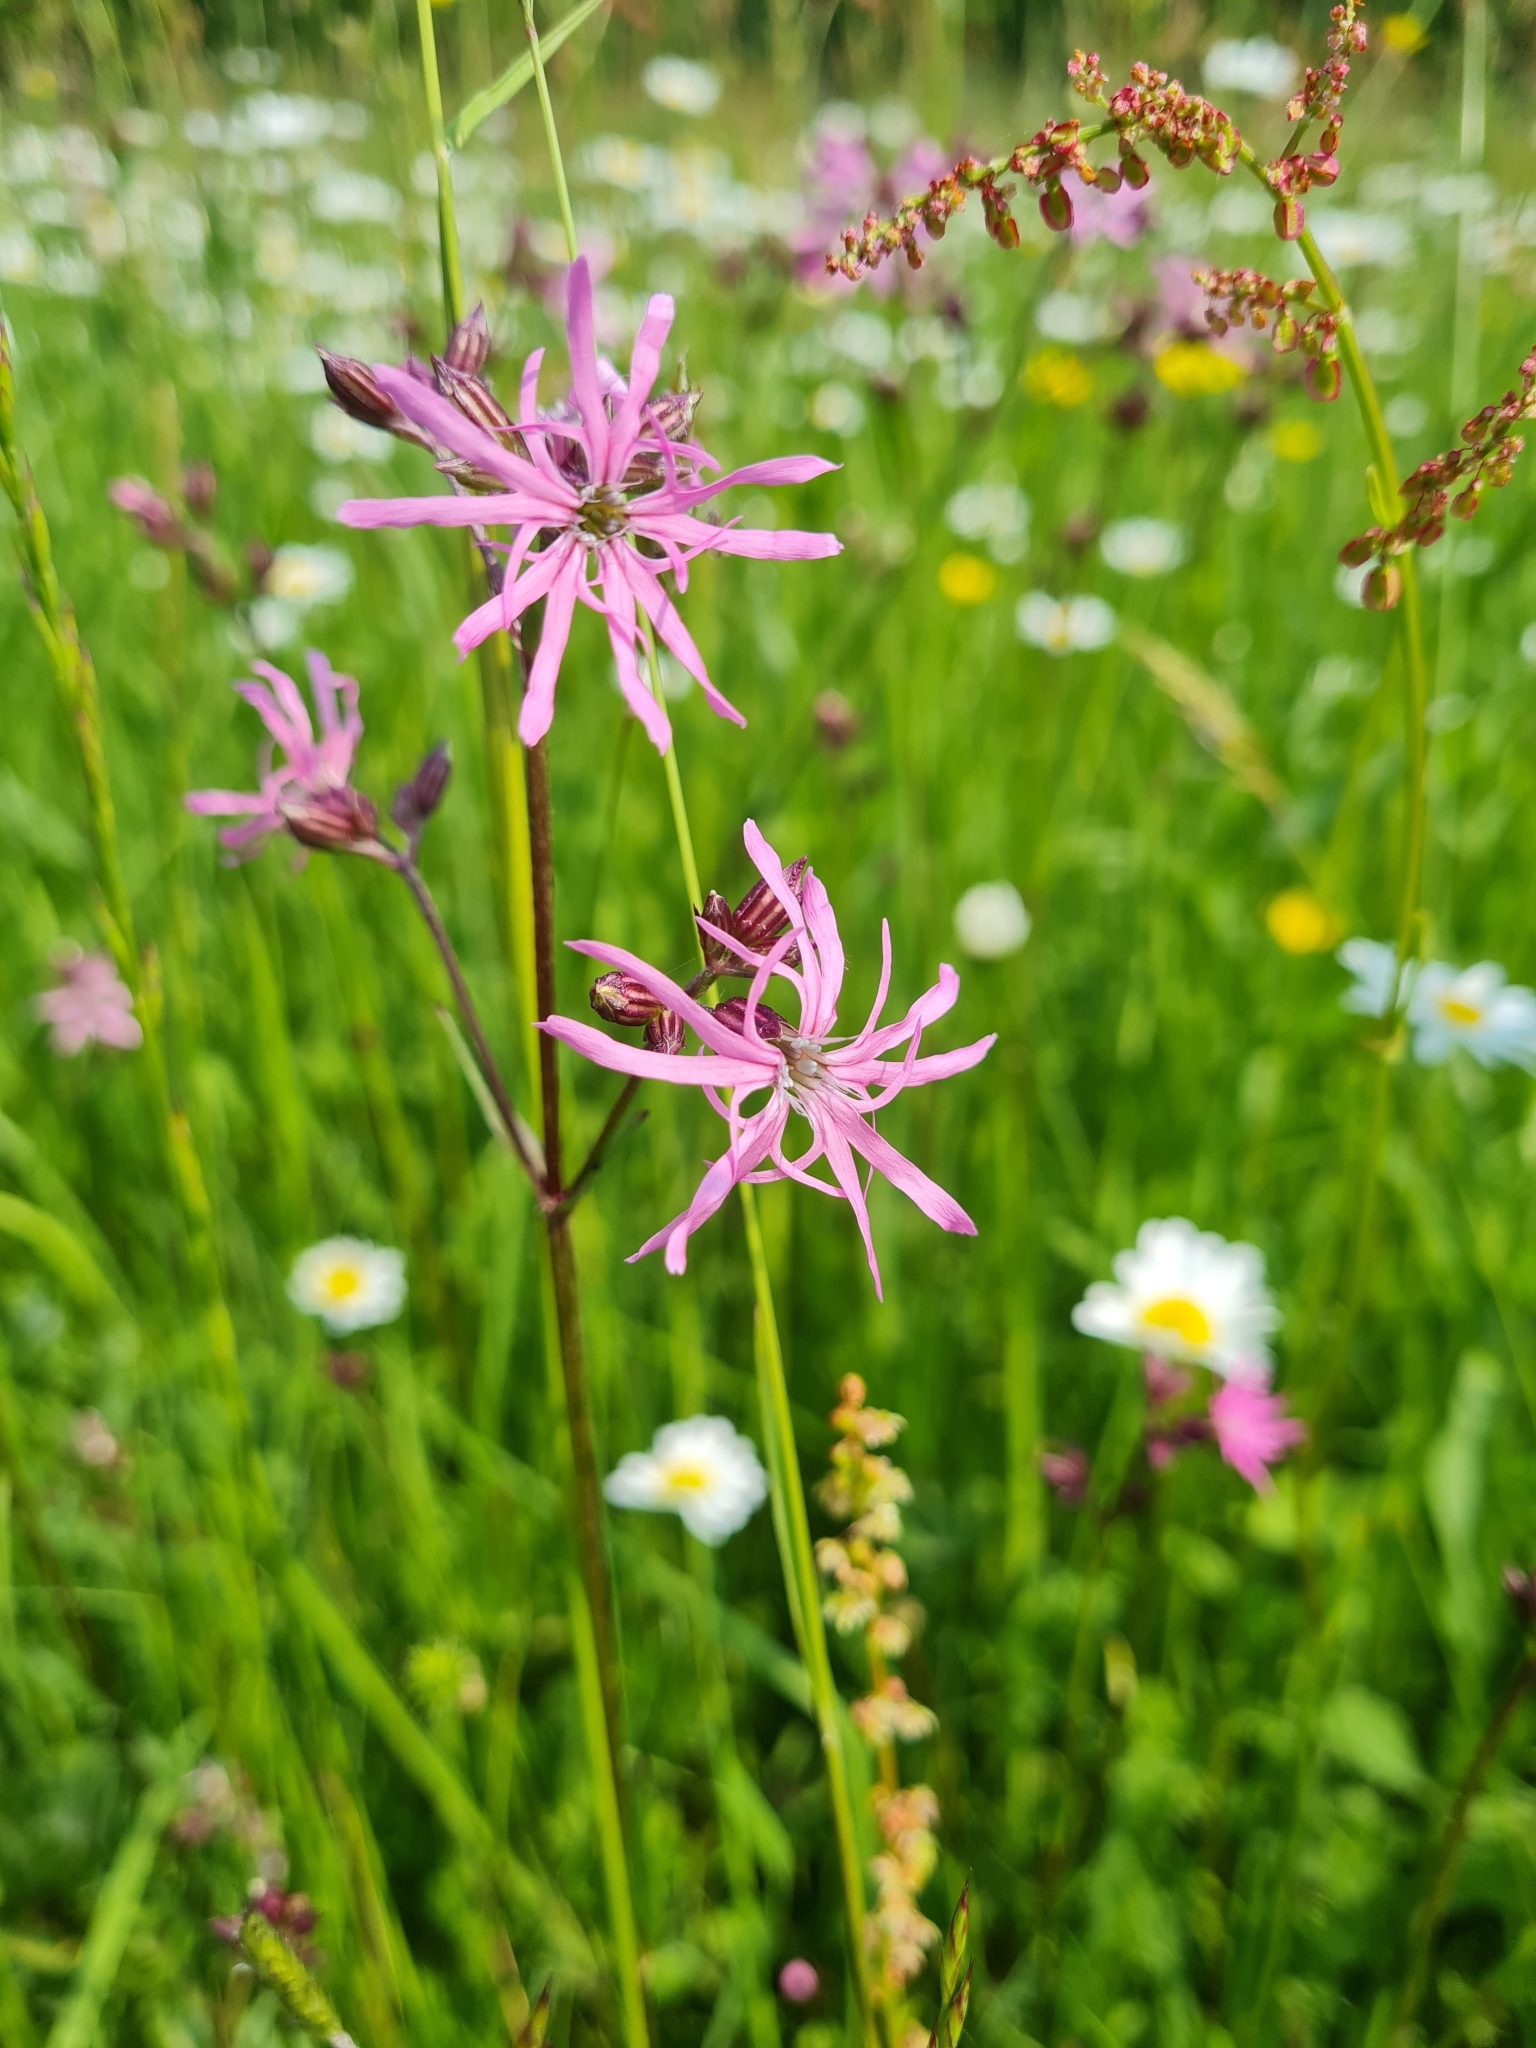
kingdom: Plantae
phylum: Tracheophyta
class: Magnoliopsida
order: Caryophyllales
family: Caryophyllaceae
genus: Silene
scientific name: Silene flos-cuculi
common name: Ragged-robin
